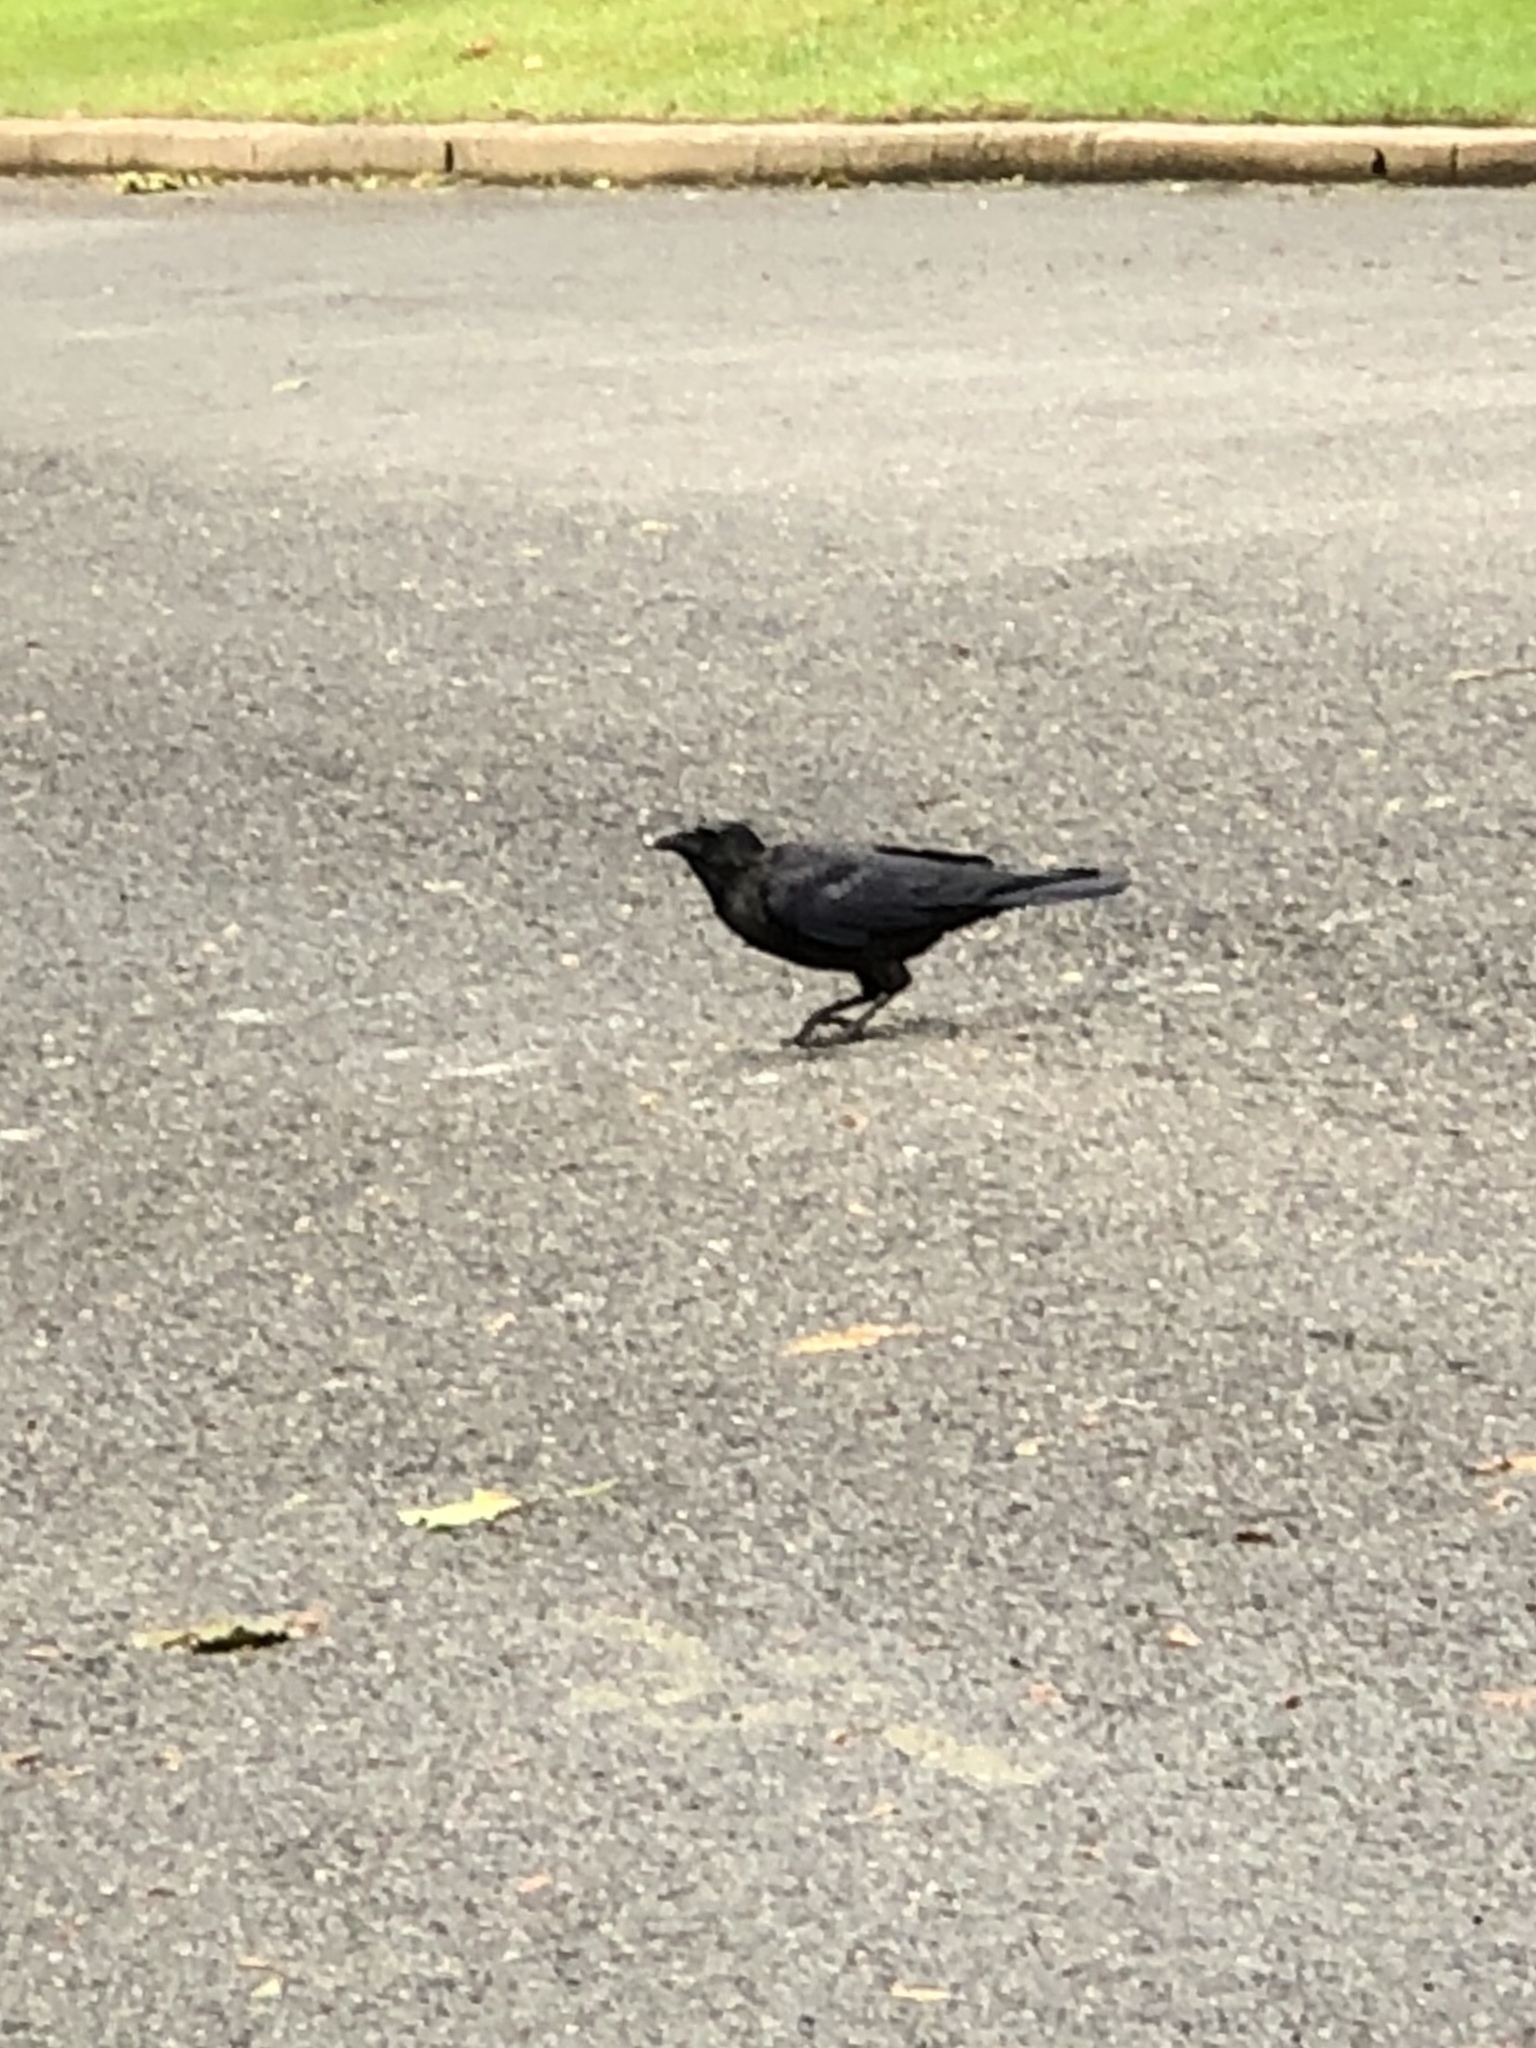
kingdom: Animalia
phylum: Chordata
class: Aves
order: Passeriformes
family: Corvidae
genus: Corvus
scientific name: Corvus
